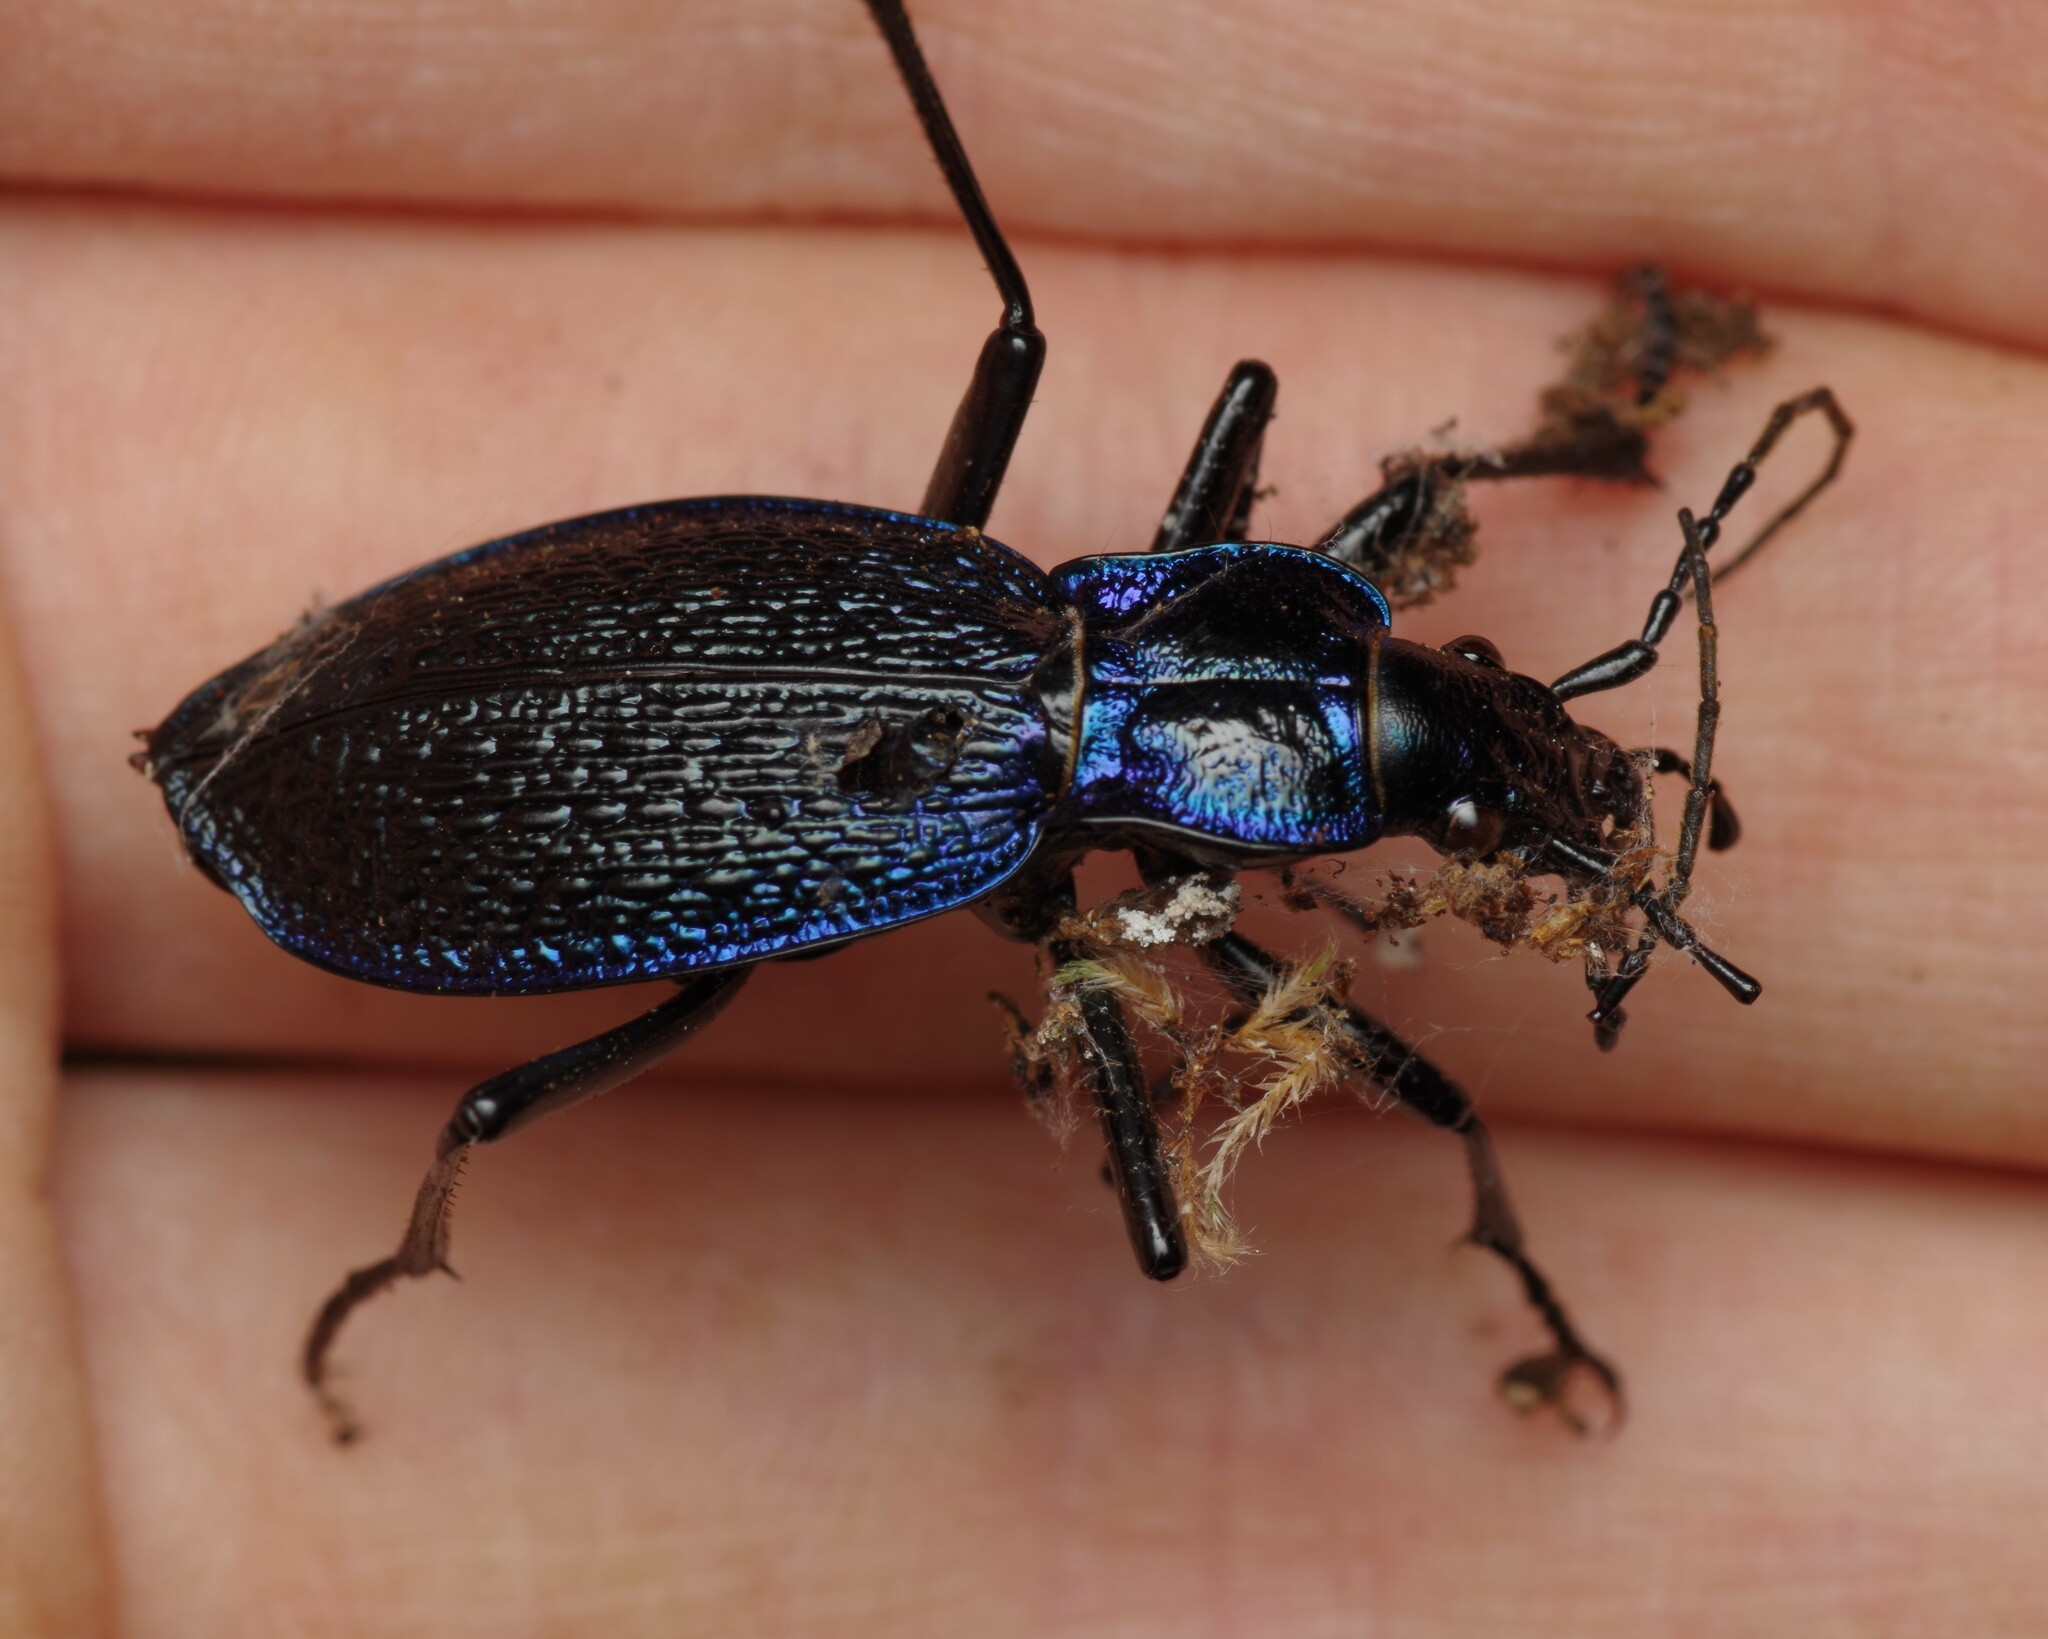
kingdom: Animalia
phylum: Arthropoda
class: Insecta
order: Coleoptera
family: Carabidae
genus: Carabus
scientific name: Carabus intricatus
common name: Blue ground beetle
